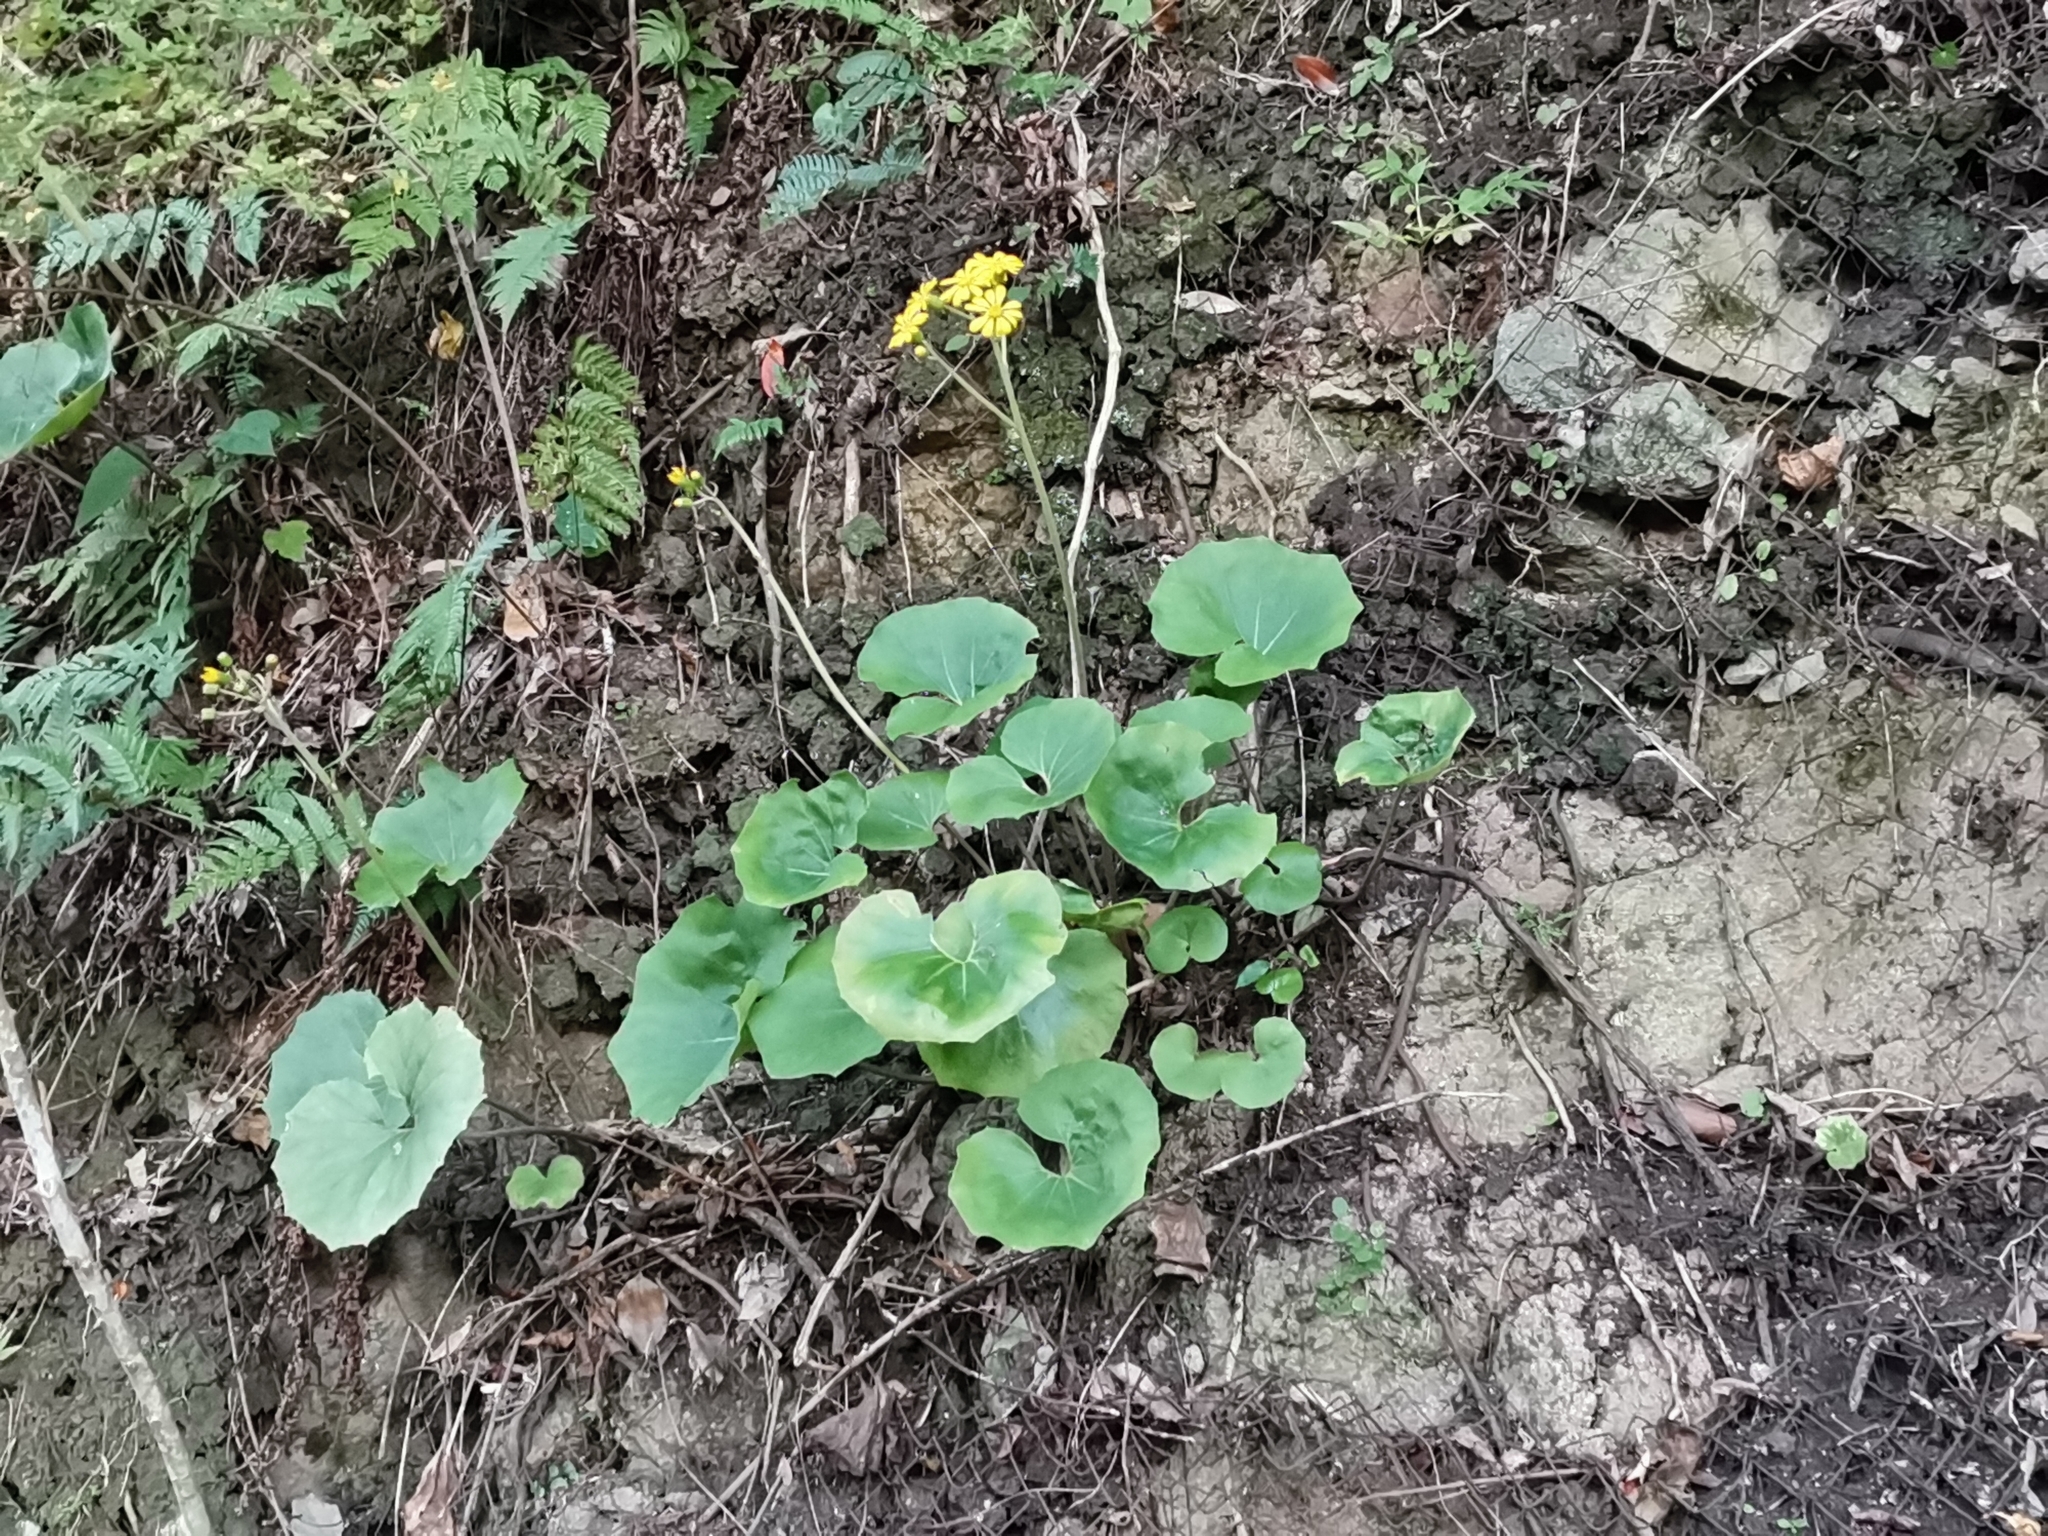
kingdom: Plantae
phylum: Tracheophyta
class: Magnoliopsida
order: Asterales
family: Asteraceae
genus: Farfugium
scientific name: Farfugium japonicum
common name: Leopardplant
